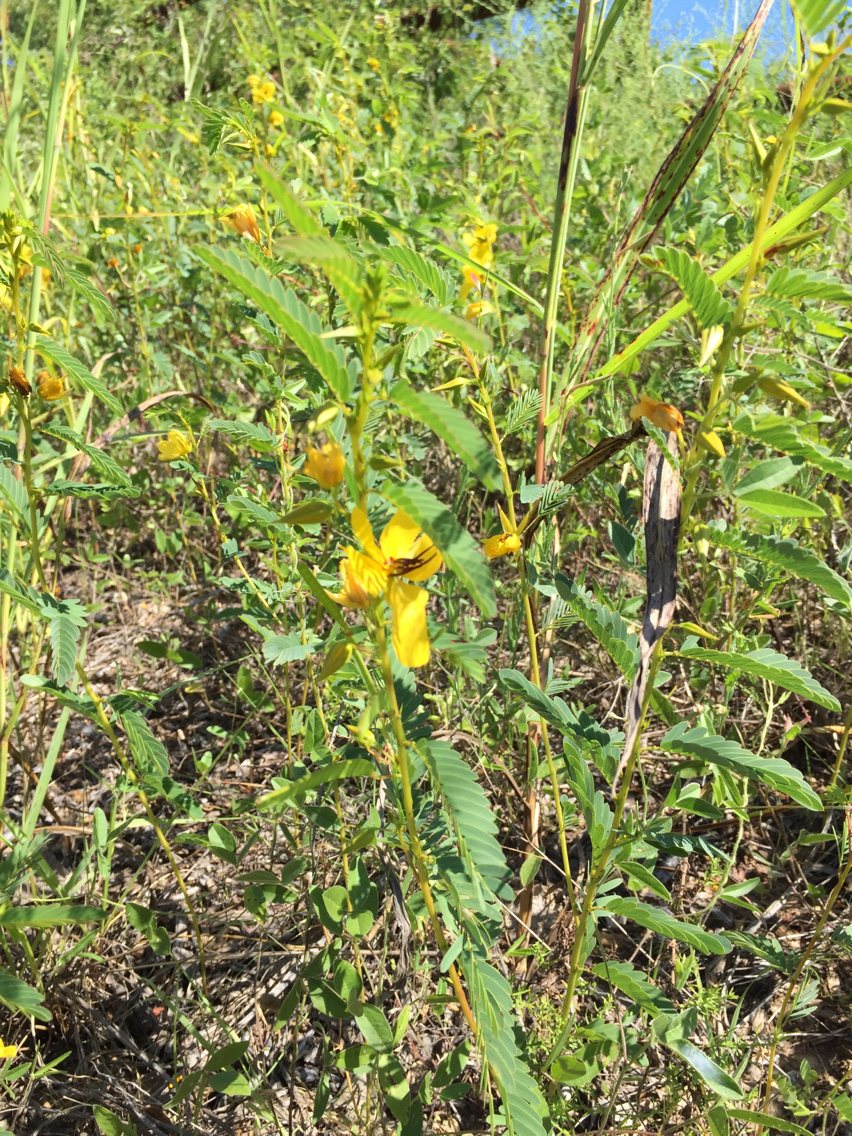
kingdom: Plantae
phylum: Tracheophyta
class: Magnoliopsida
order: Fabales
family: Fabaceae
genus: Chamaecrista
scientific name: Chamaecrista fasciculata
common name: Golden cassia
